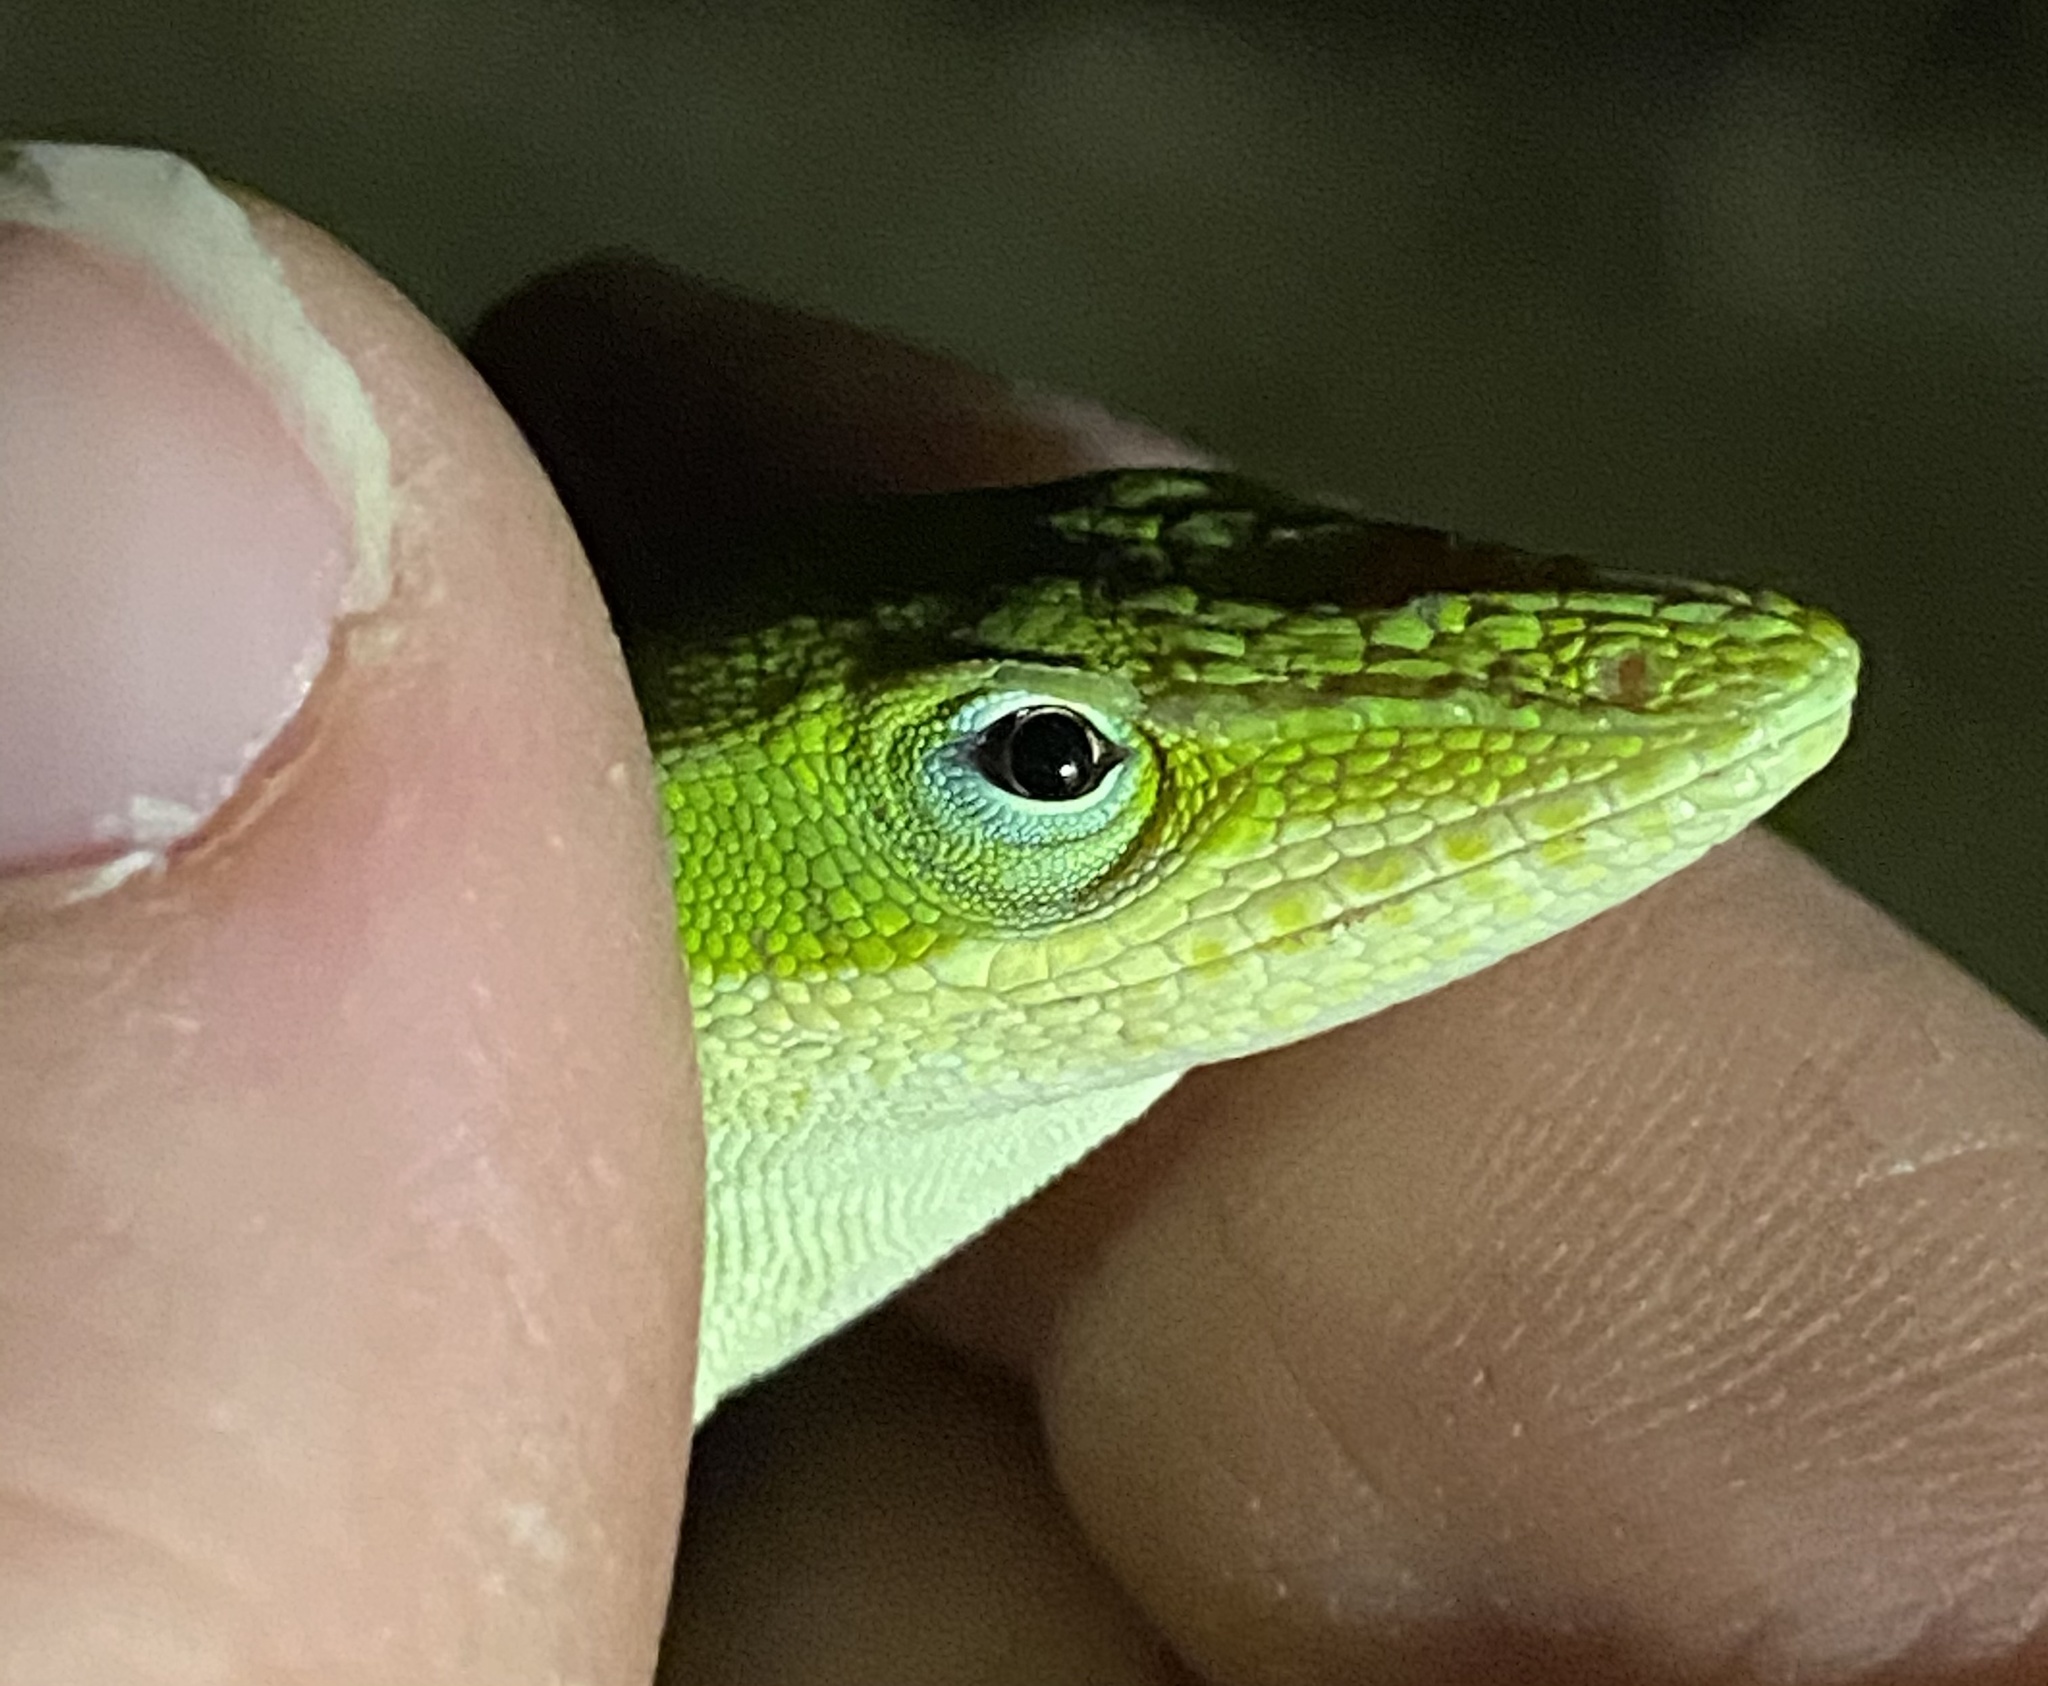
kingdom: Animalia
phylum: Chordata
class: Squamata
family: Dactyloidae
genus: Anolis
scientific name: Anolis carolinensis
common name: Green anole
